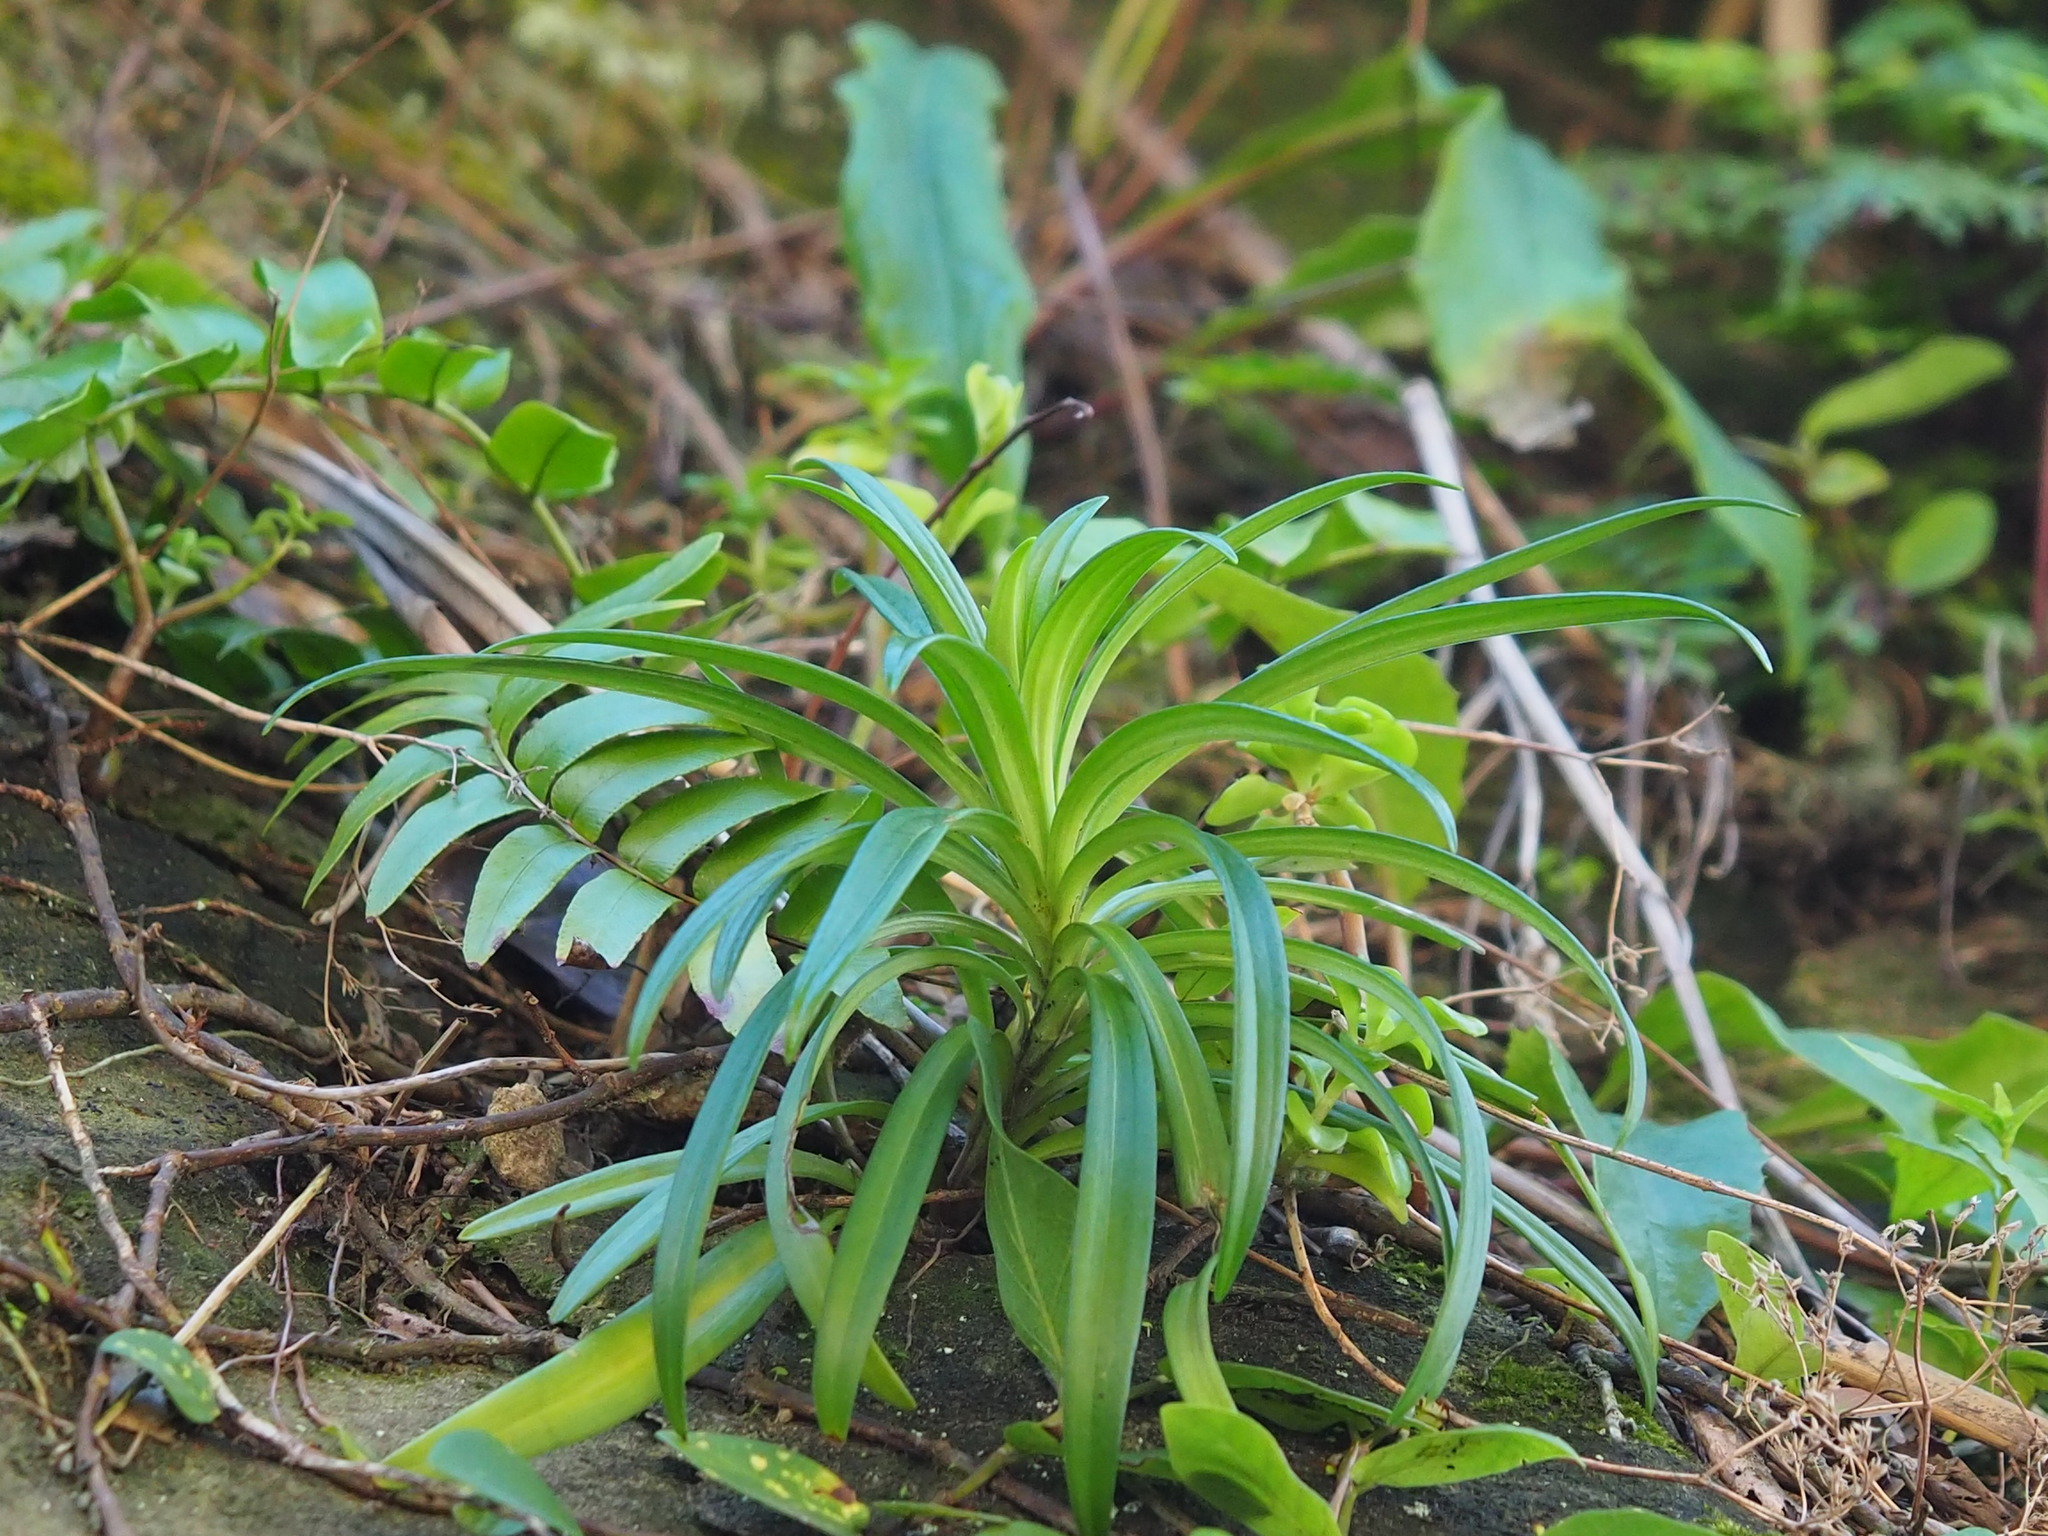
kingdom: Plantae
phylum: Tracheophyta
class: Liliopsida
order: Liliales
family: Liliaceae
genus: Lilium
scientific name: Lilium formosanum
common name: Formosa lily
